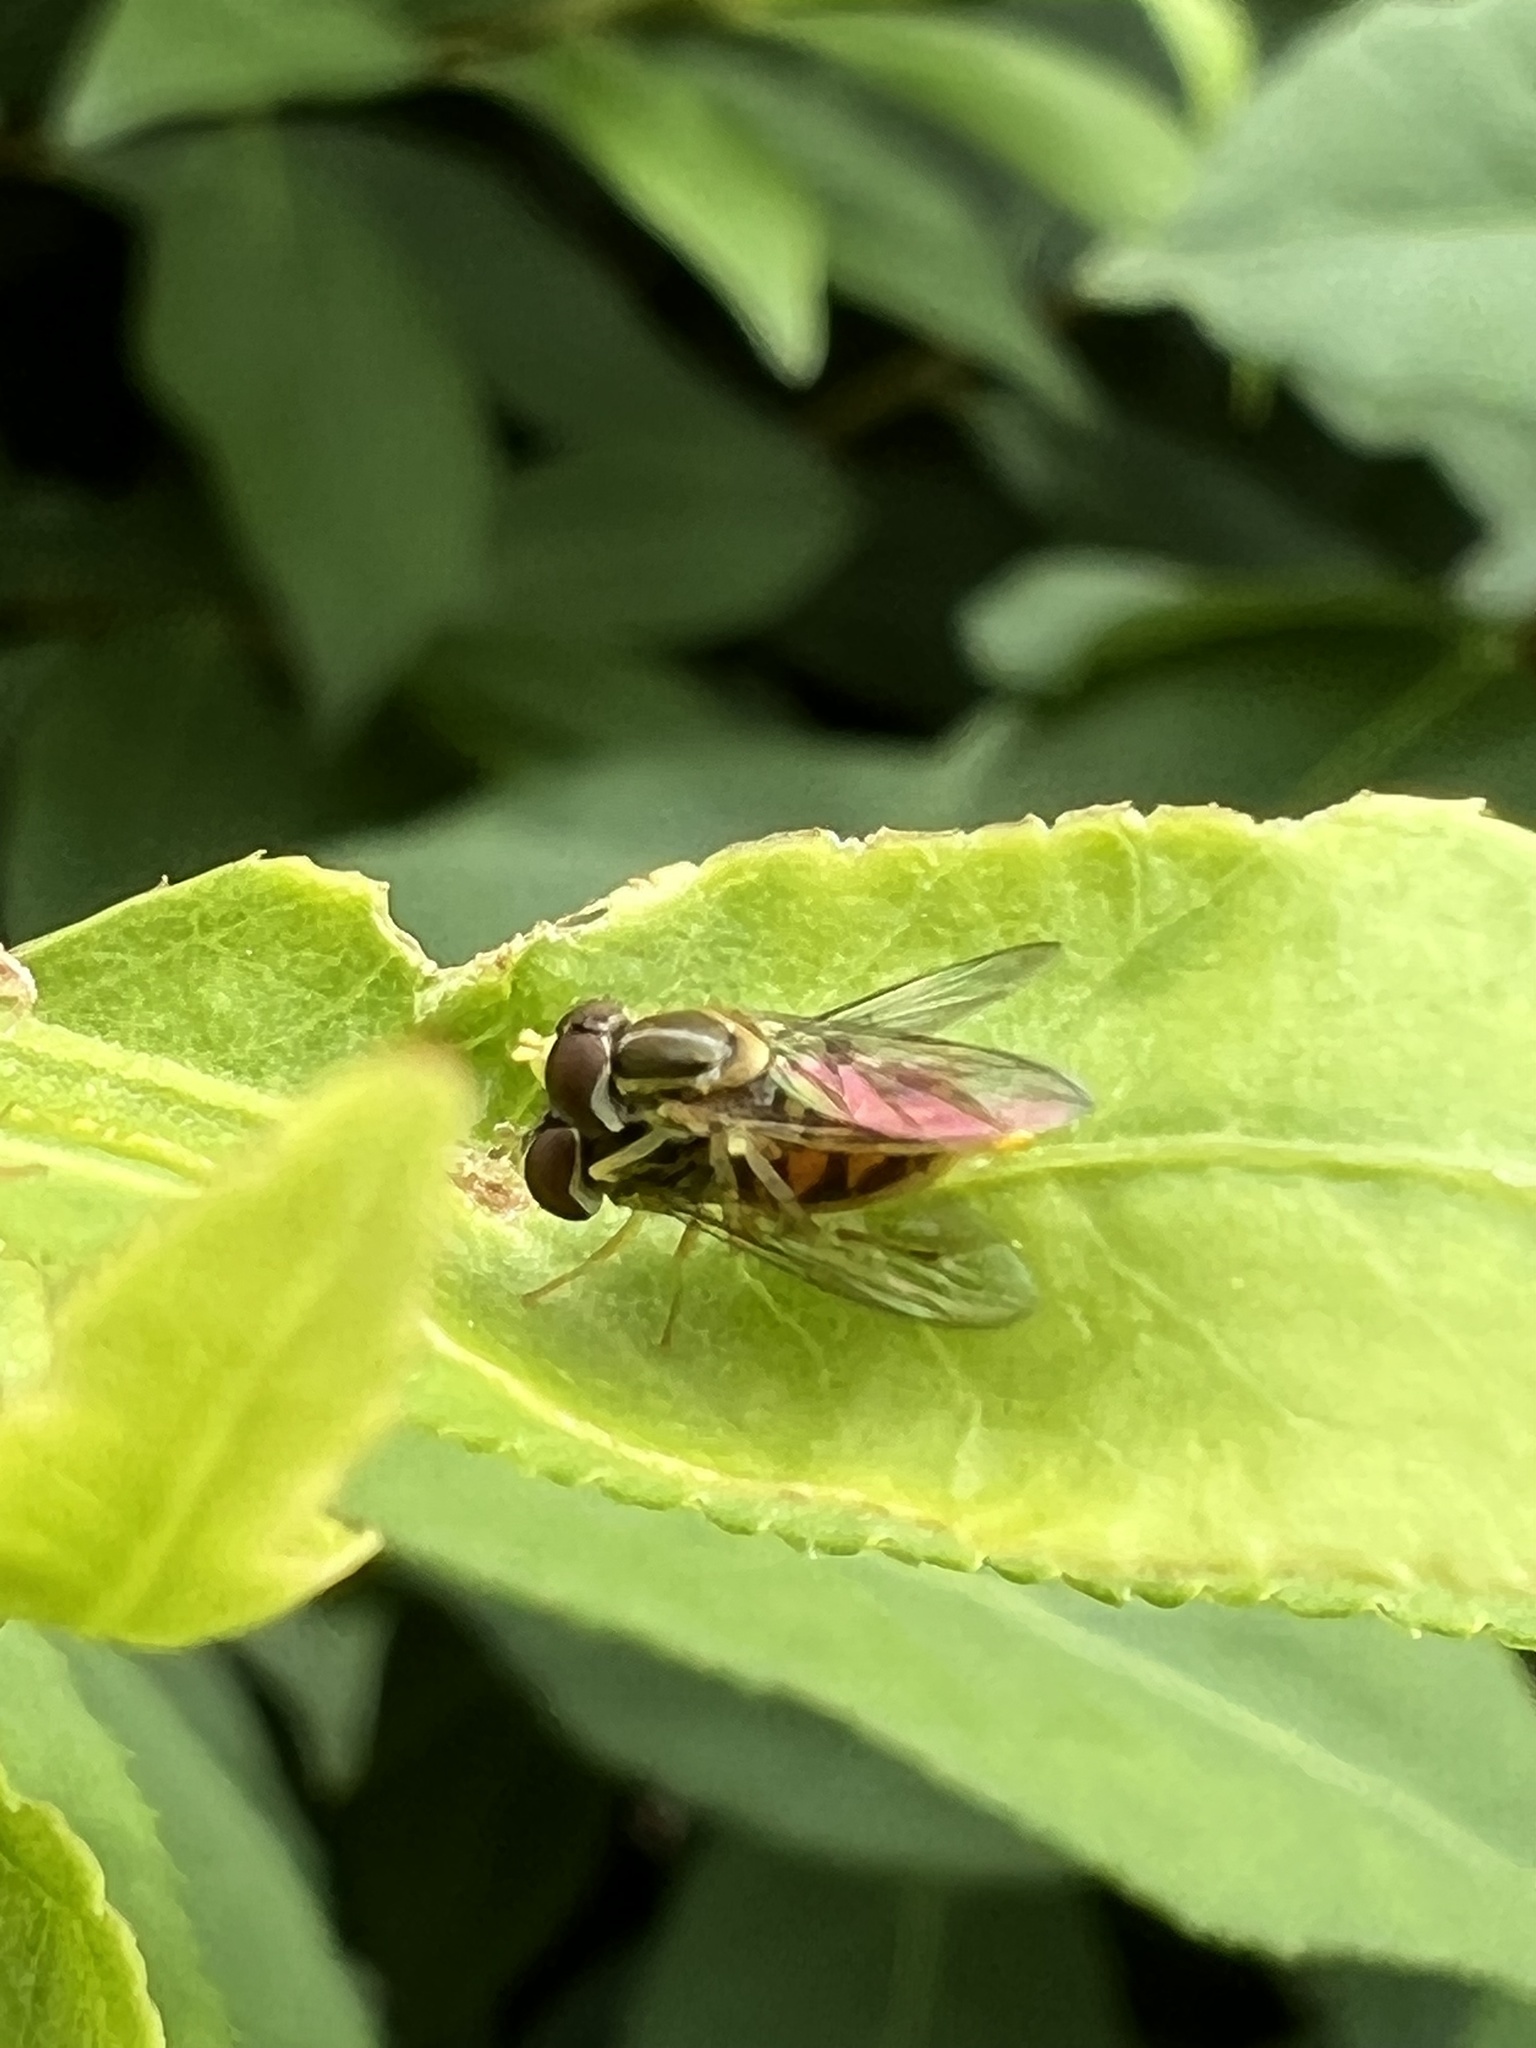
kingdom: Animalia
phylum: Arthropoda
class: Insecta
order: Diptera
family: Syrphidae
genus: Toxomerus
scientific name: Toxomerus marginatus
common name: Syrphid fly
